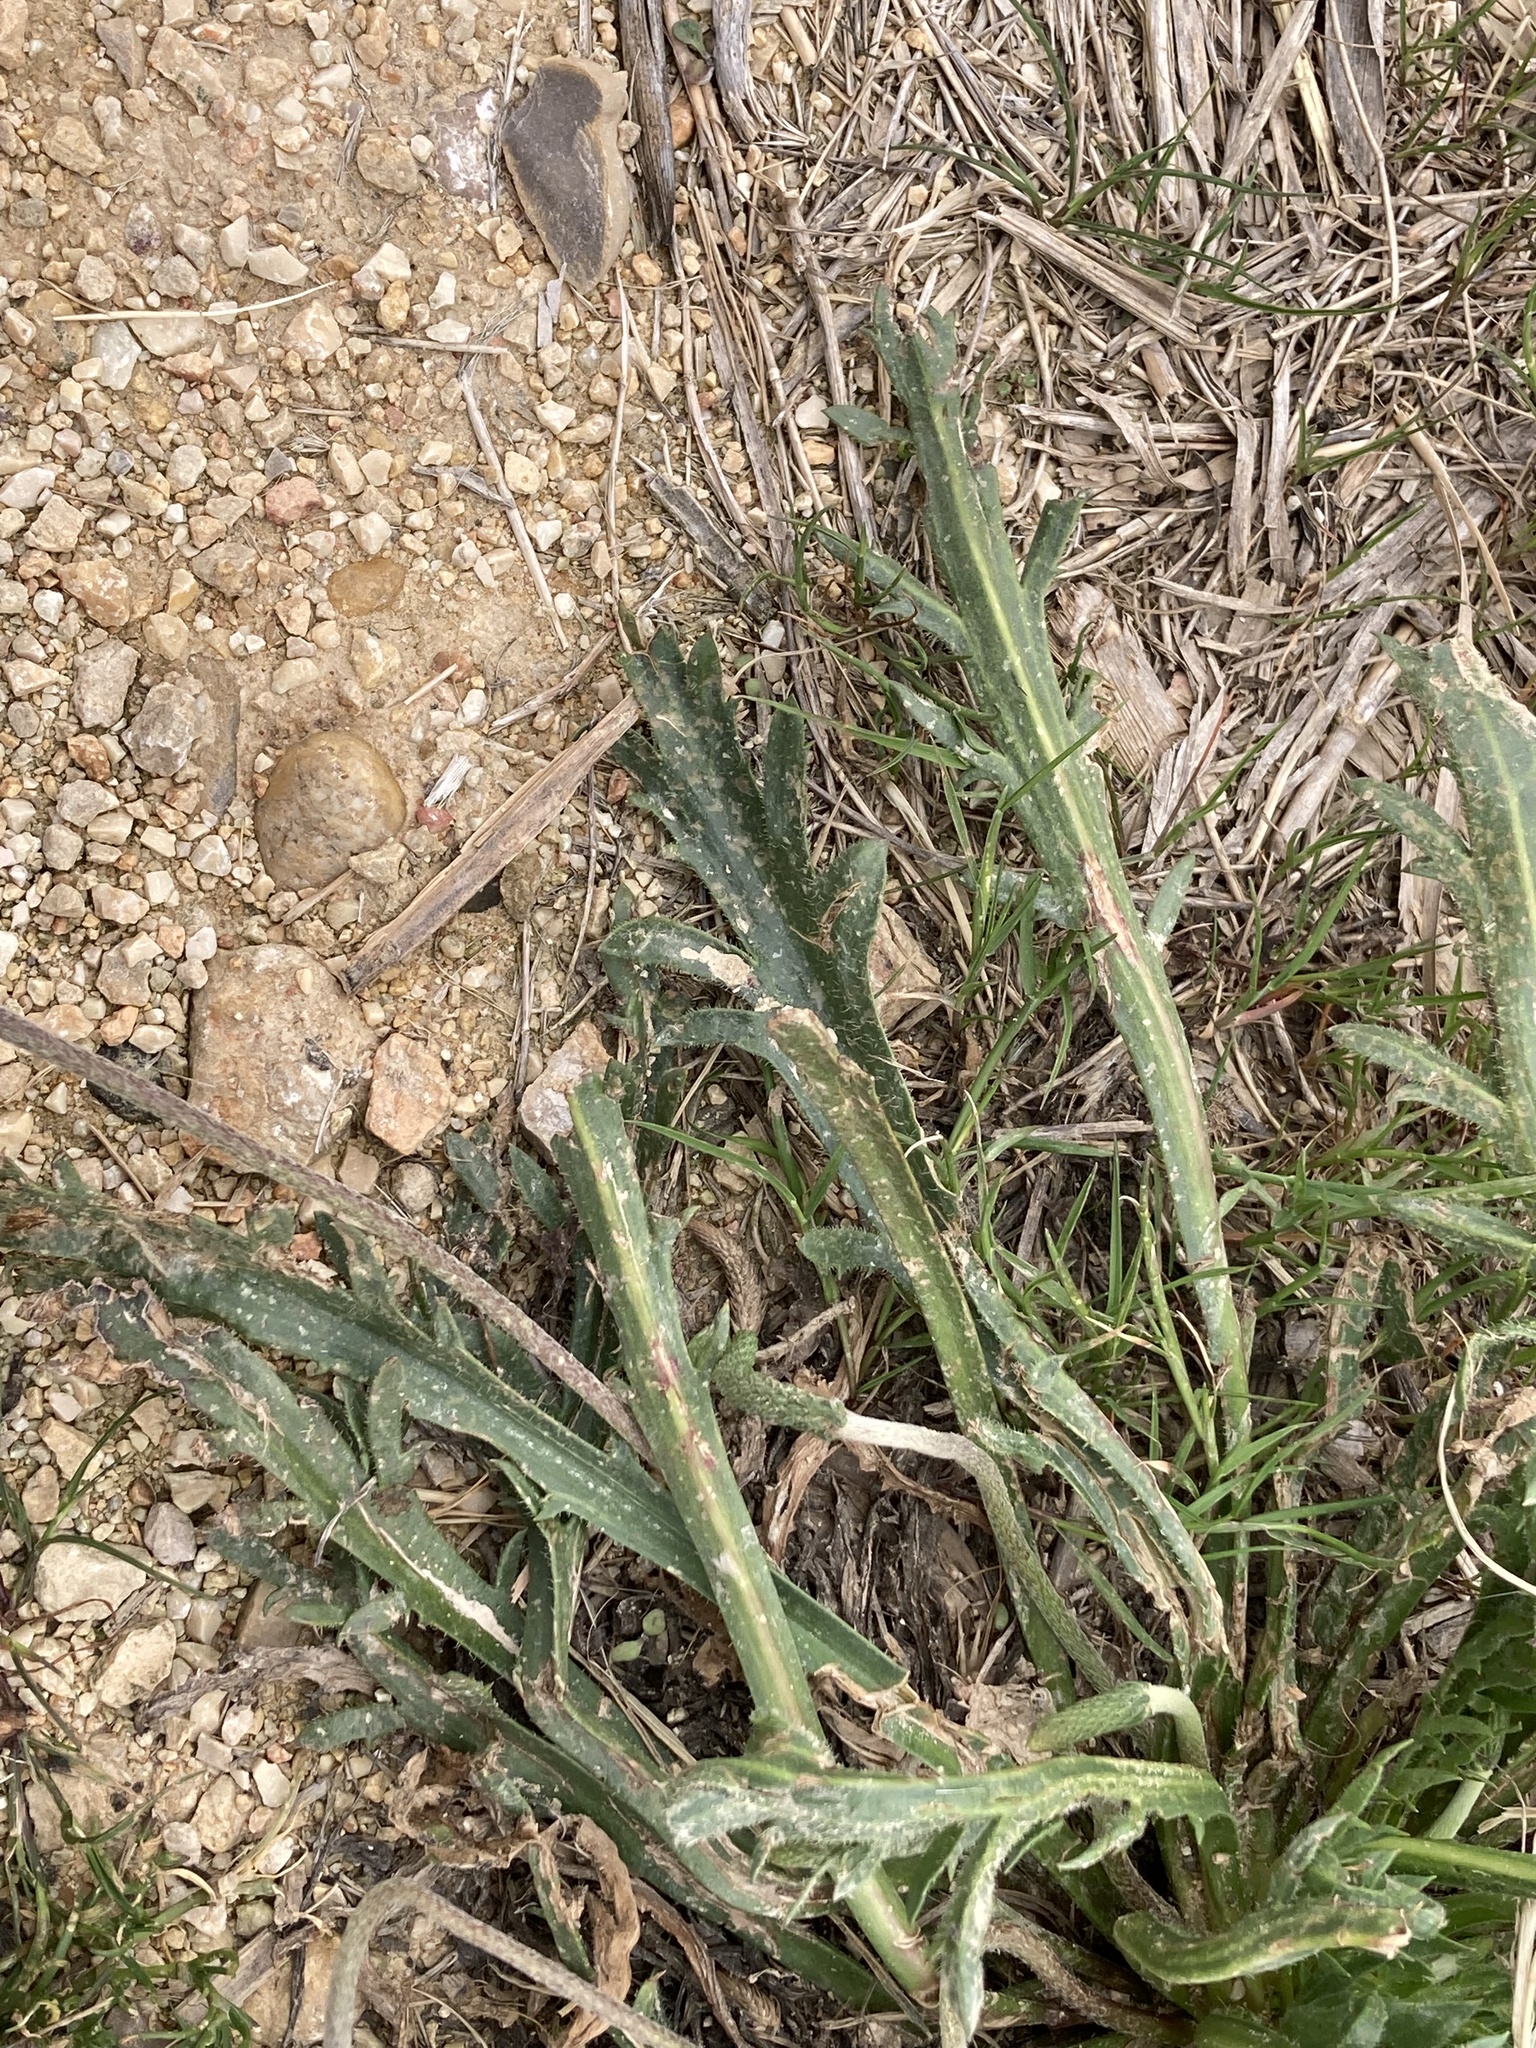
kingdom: Plantae
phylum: Tracheophyta
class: Magnoliopsida
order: Lamiales
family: Plantaginaceae
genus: Plantago
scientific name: Plantago coronopus
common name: Buck's-horn plantain
